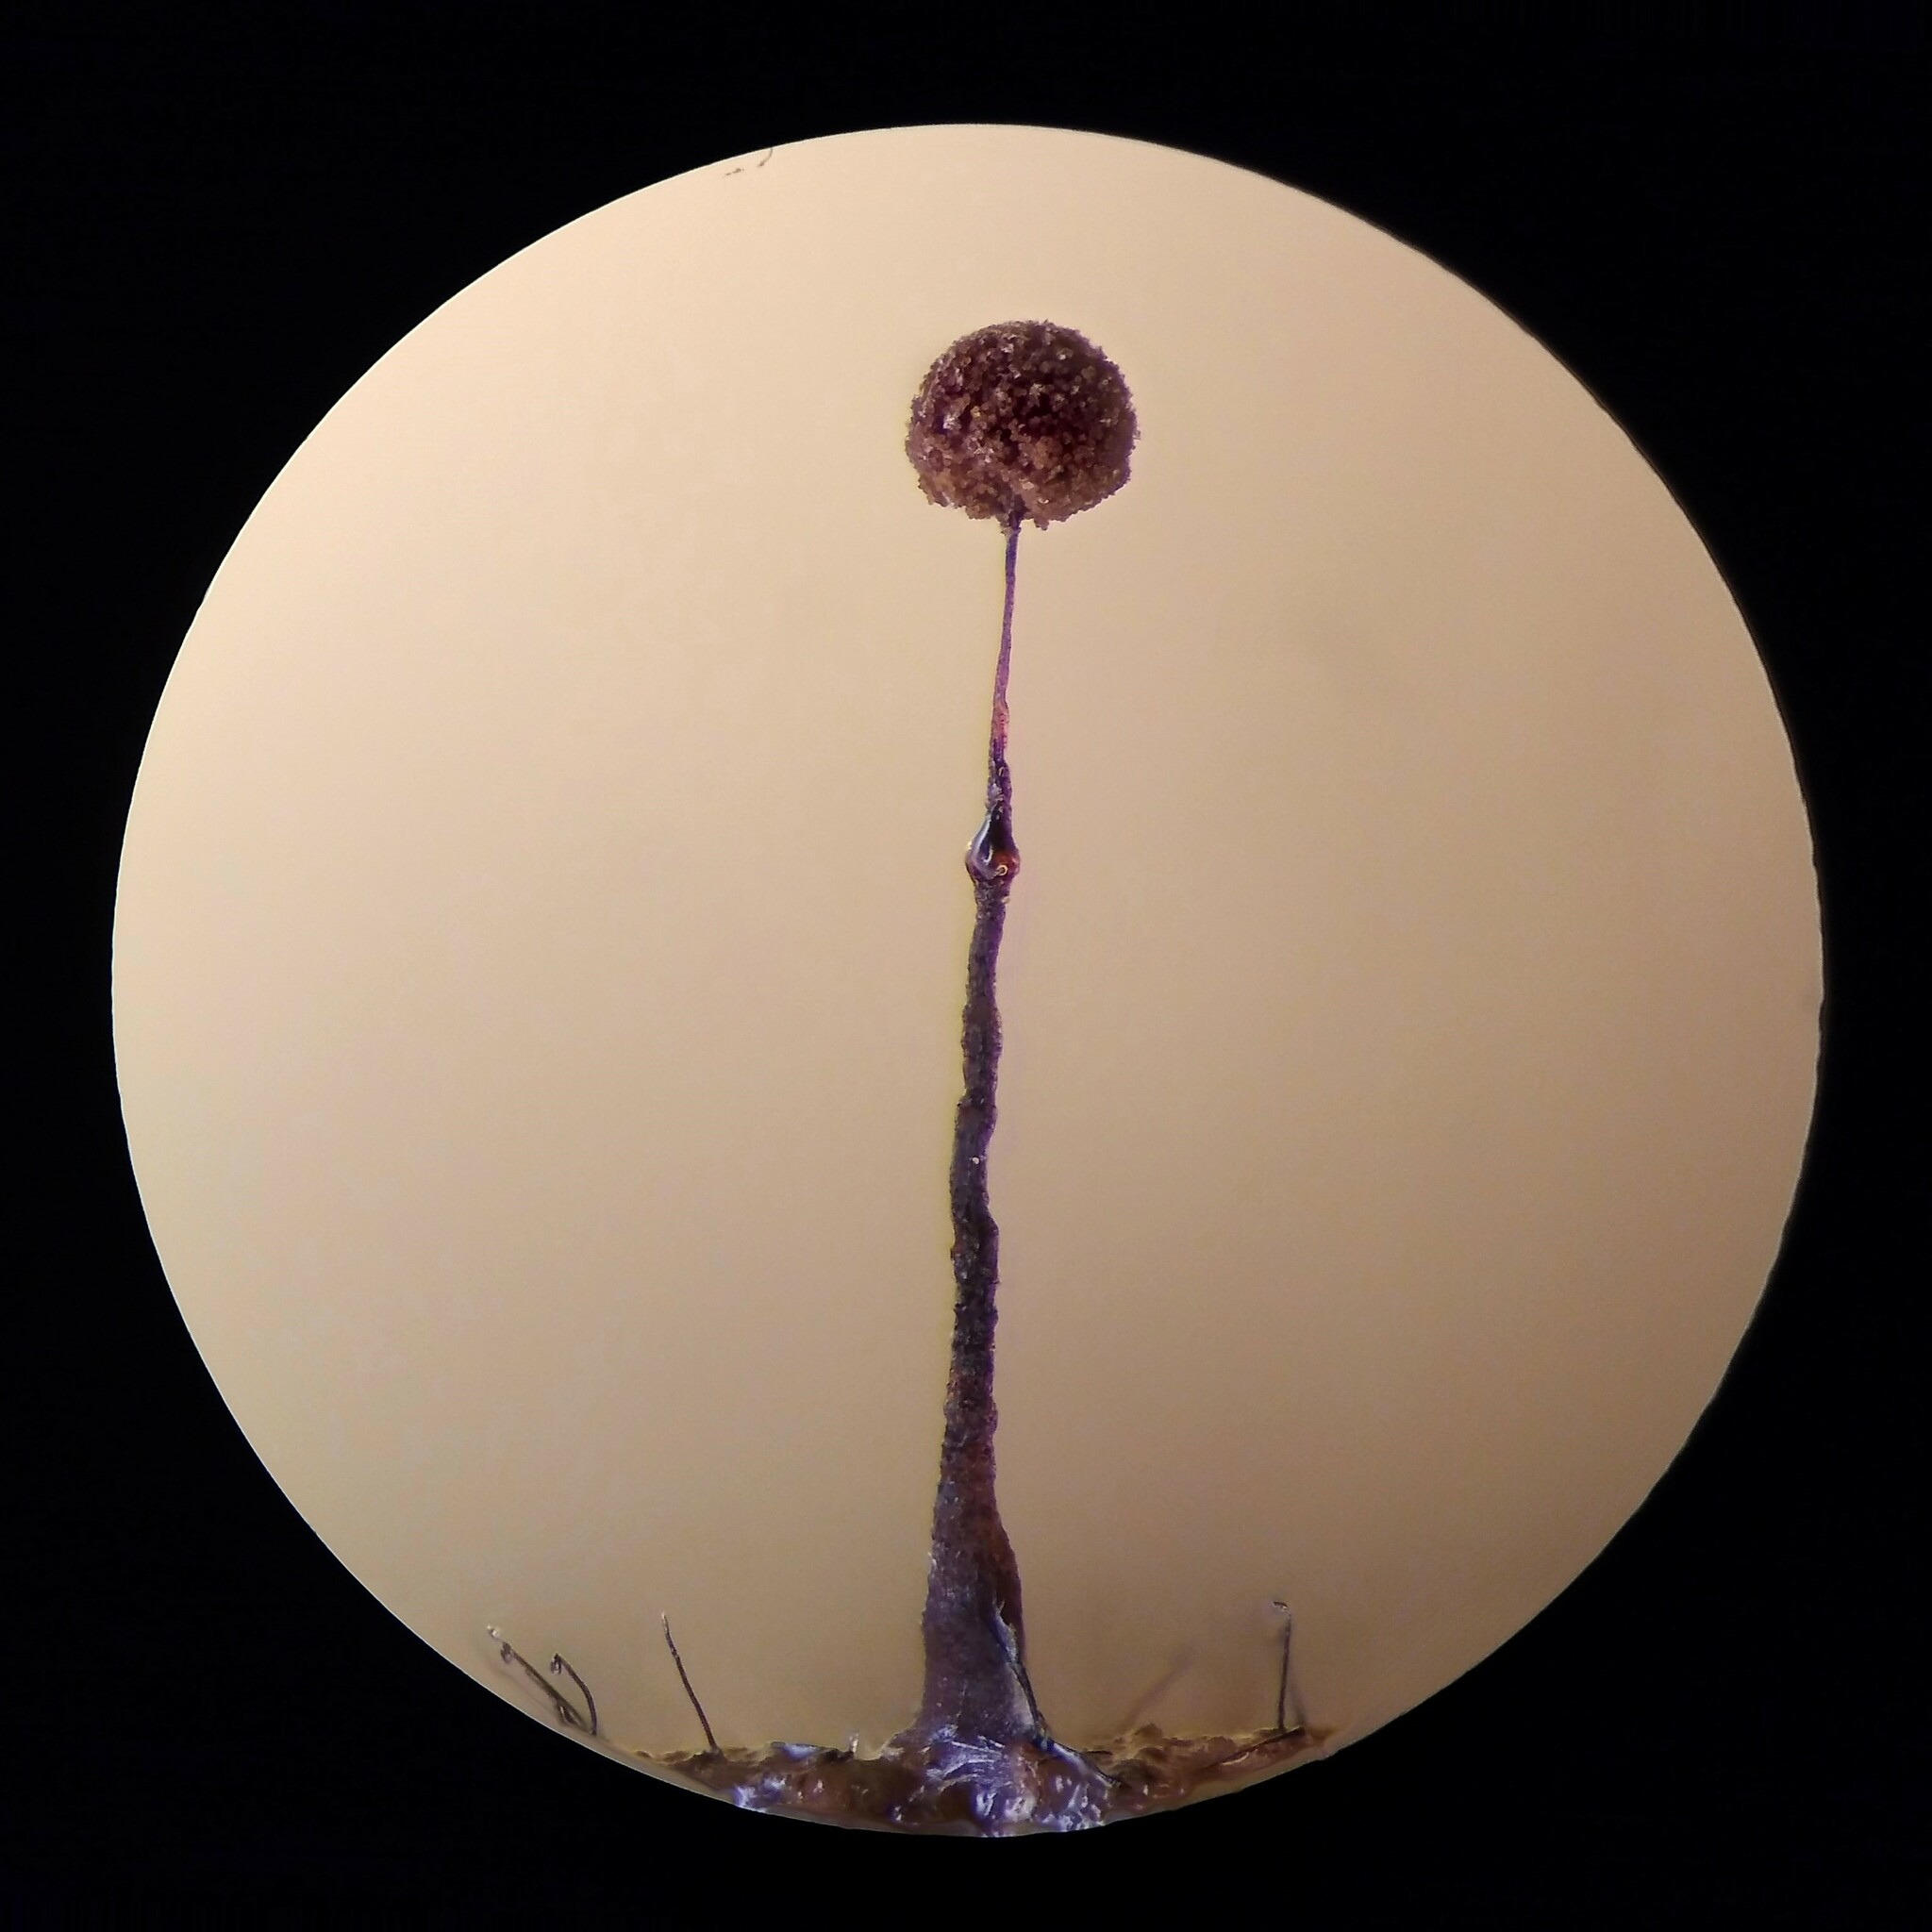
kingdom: Protozoa
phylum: Mycetozoa
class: Myxomycetes
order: Echinosteliales
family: Clastodermataceae
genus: Clastoderma
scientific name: Clastoderma debaryanum
